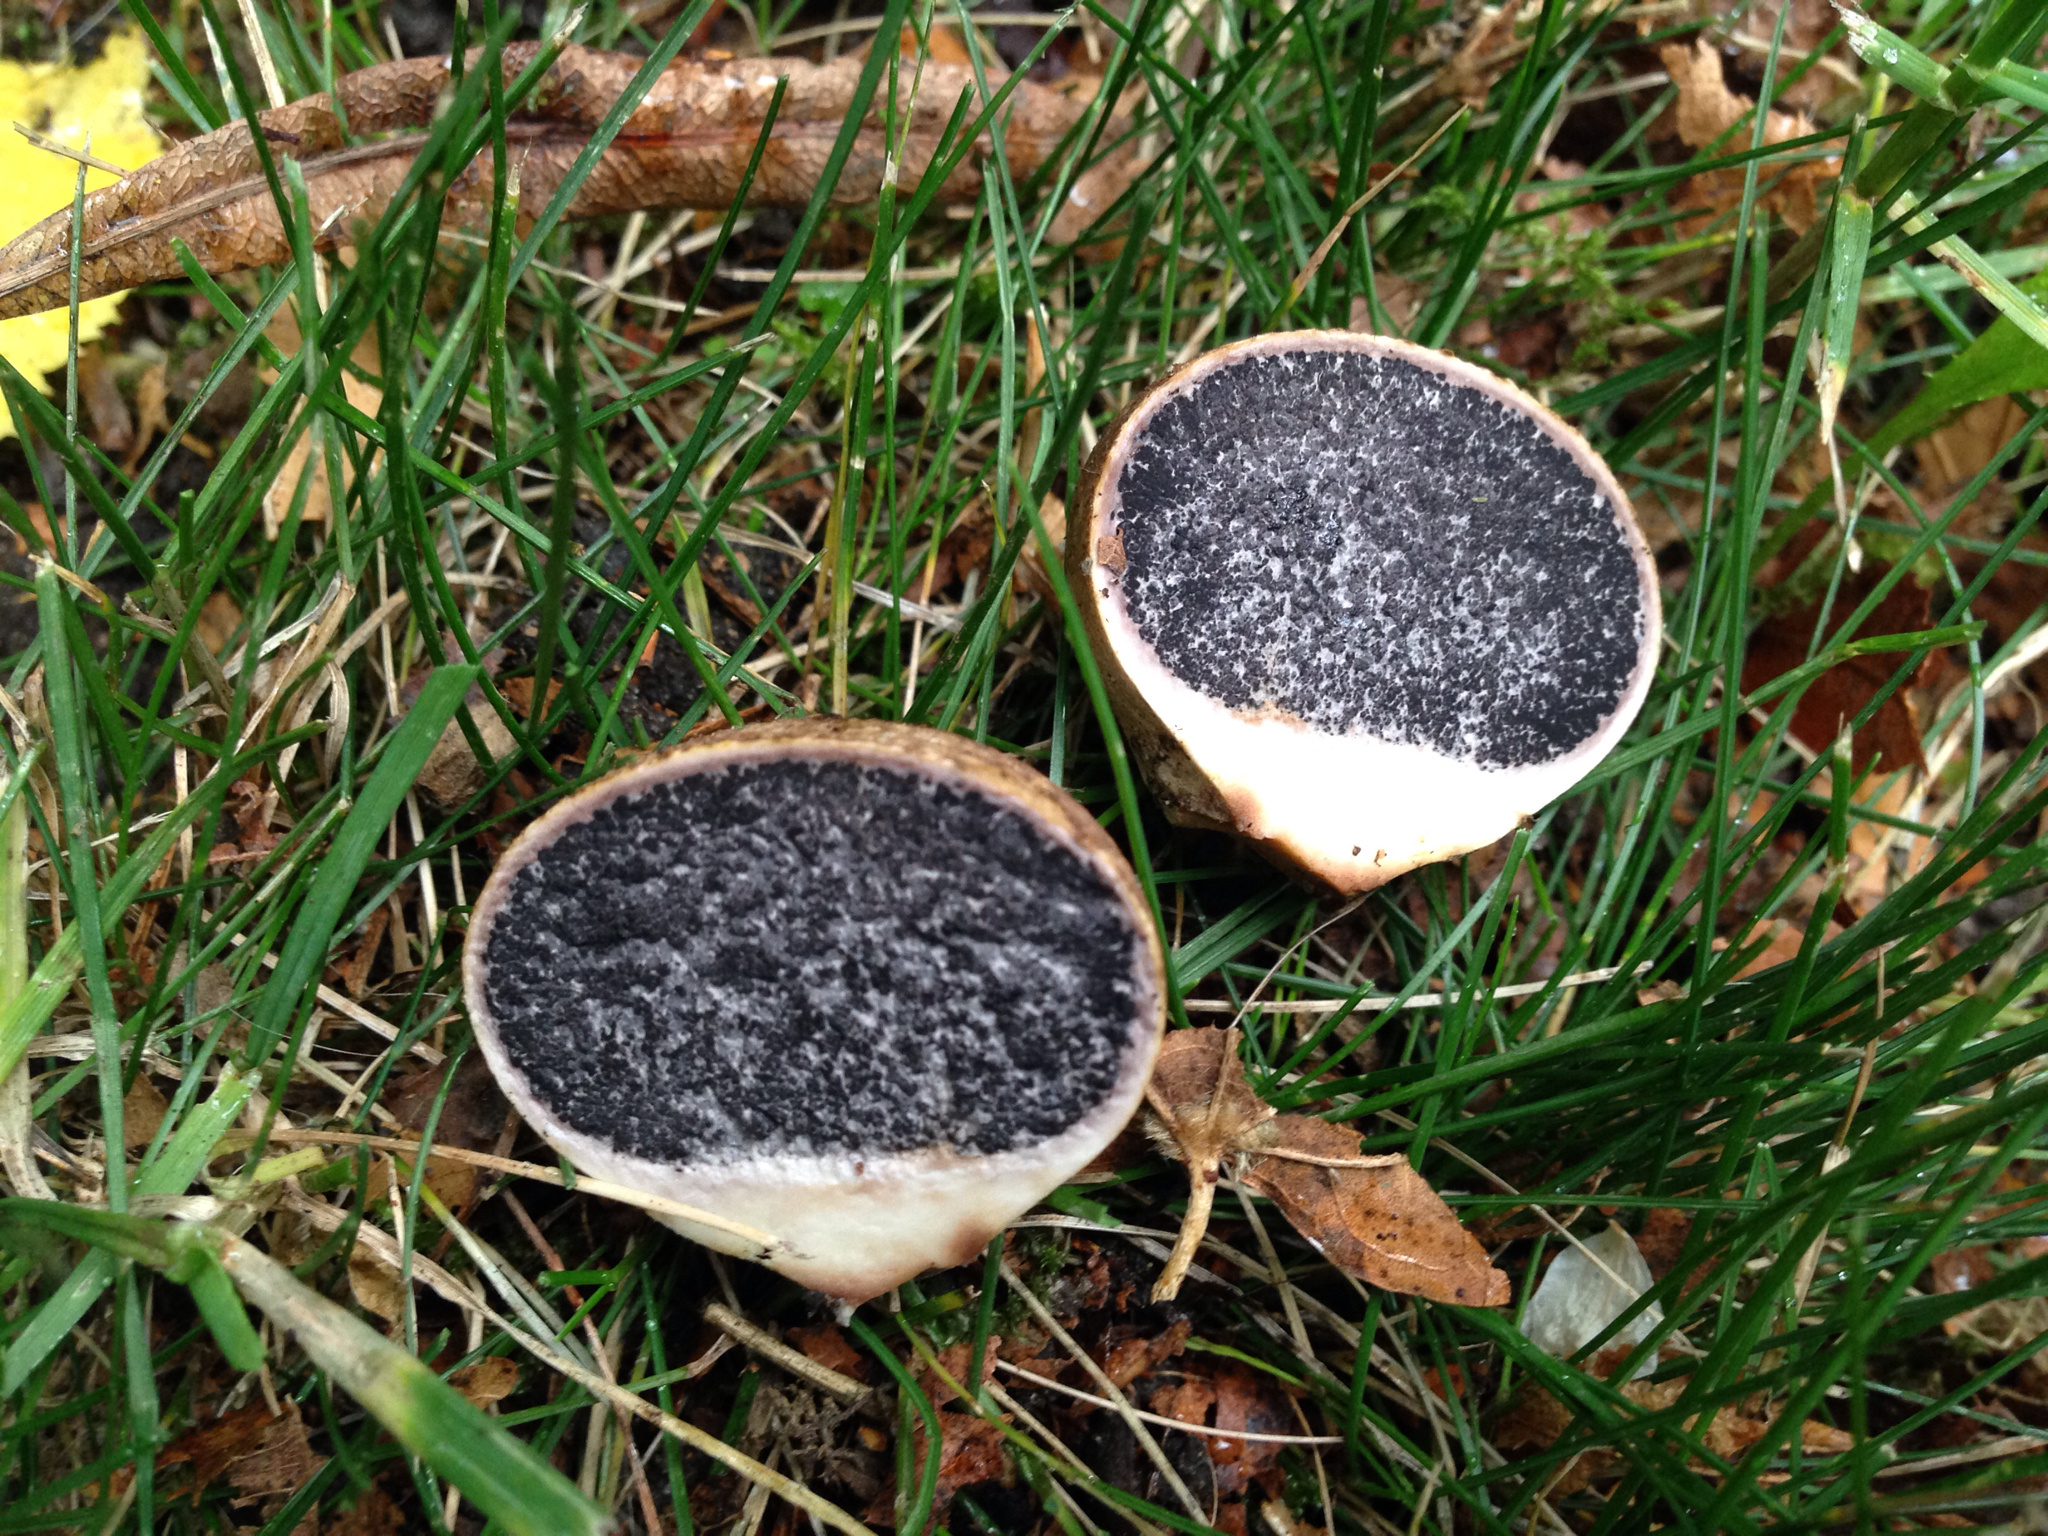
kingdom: Fungi
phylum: Basidiomycota
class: Agaricomycetes
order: Boletales
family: Sclerodermataceae
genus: Scleroderma
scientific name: Scleroderma citrinum
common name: Common earthball
